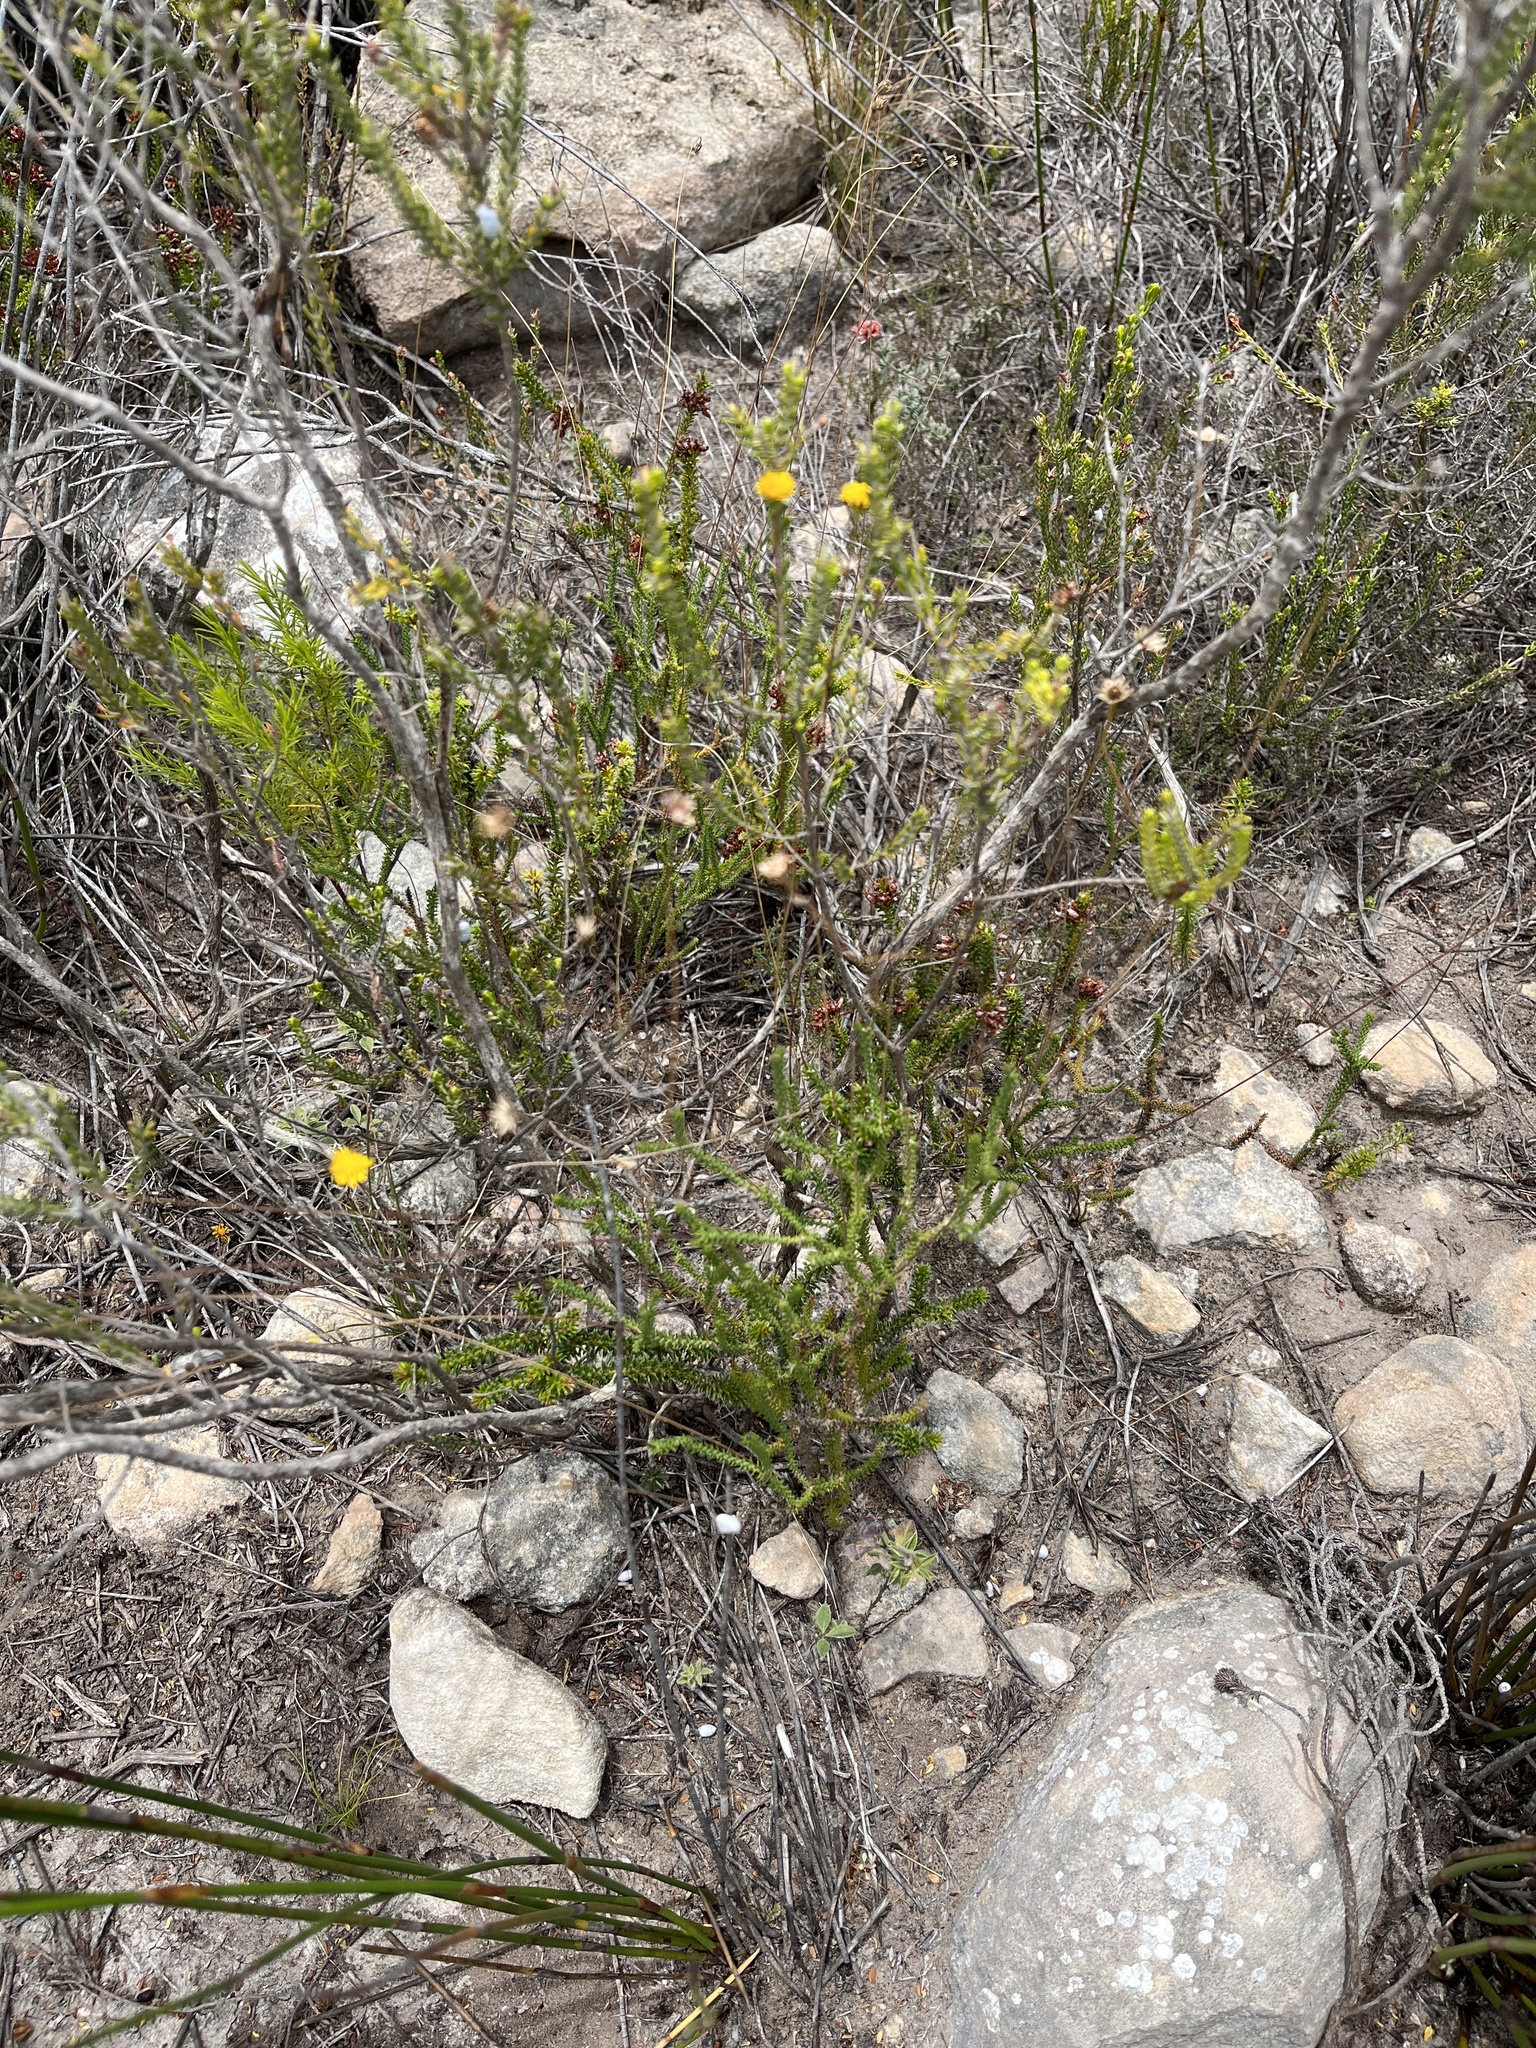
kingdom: Plantae
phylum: Tracheophyta
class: Magnoliopsida
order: Asterales
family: Asteraceae
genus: Euryops
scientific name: Euryops ericoides
